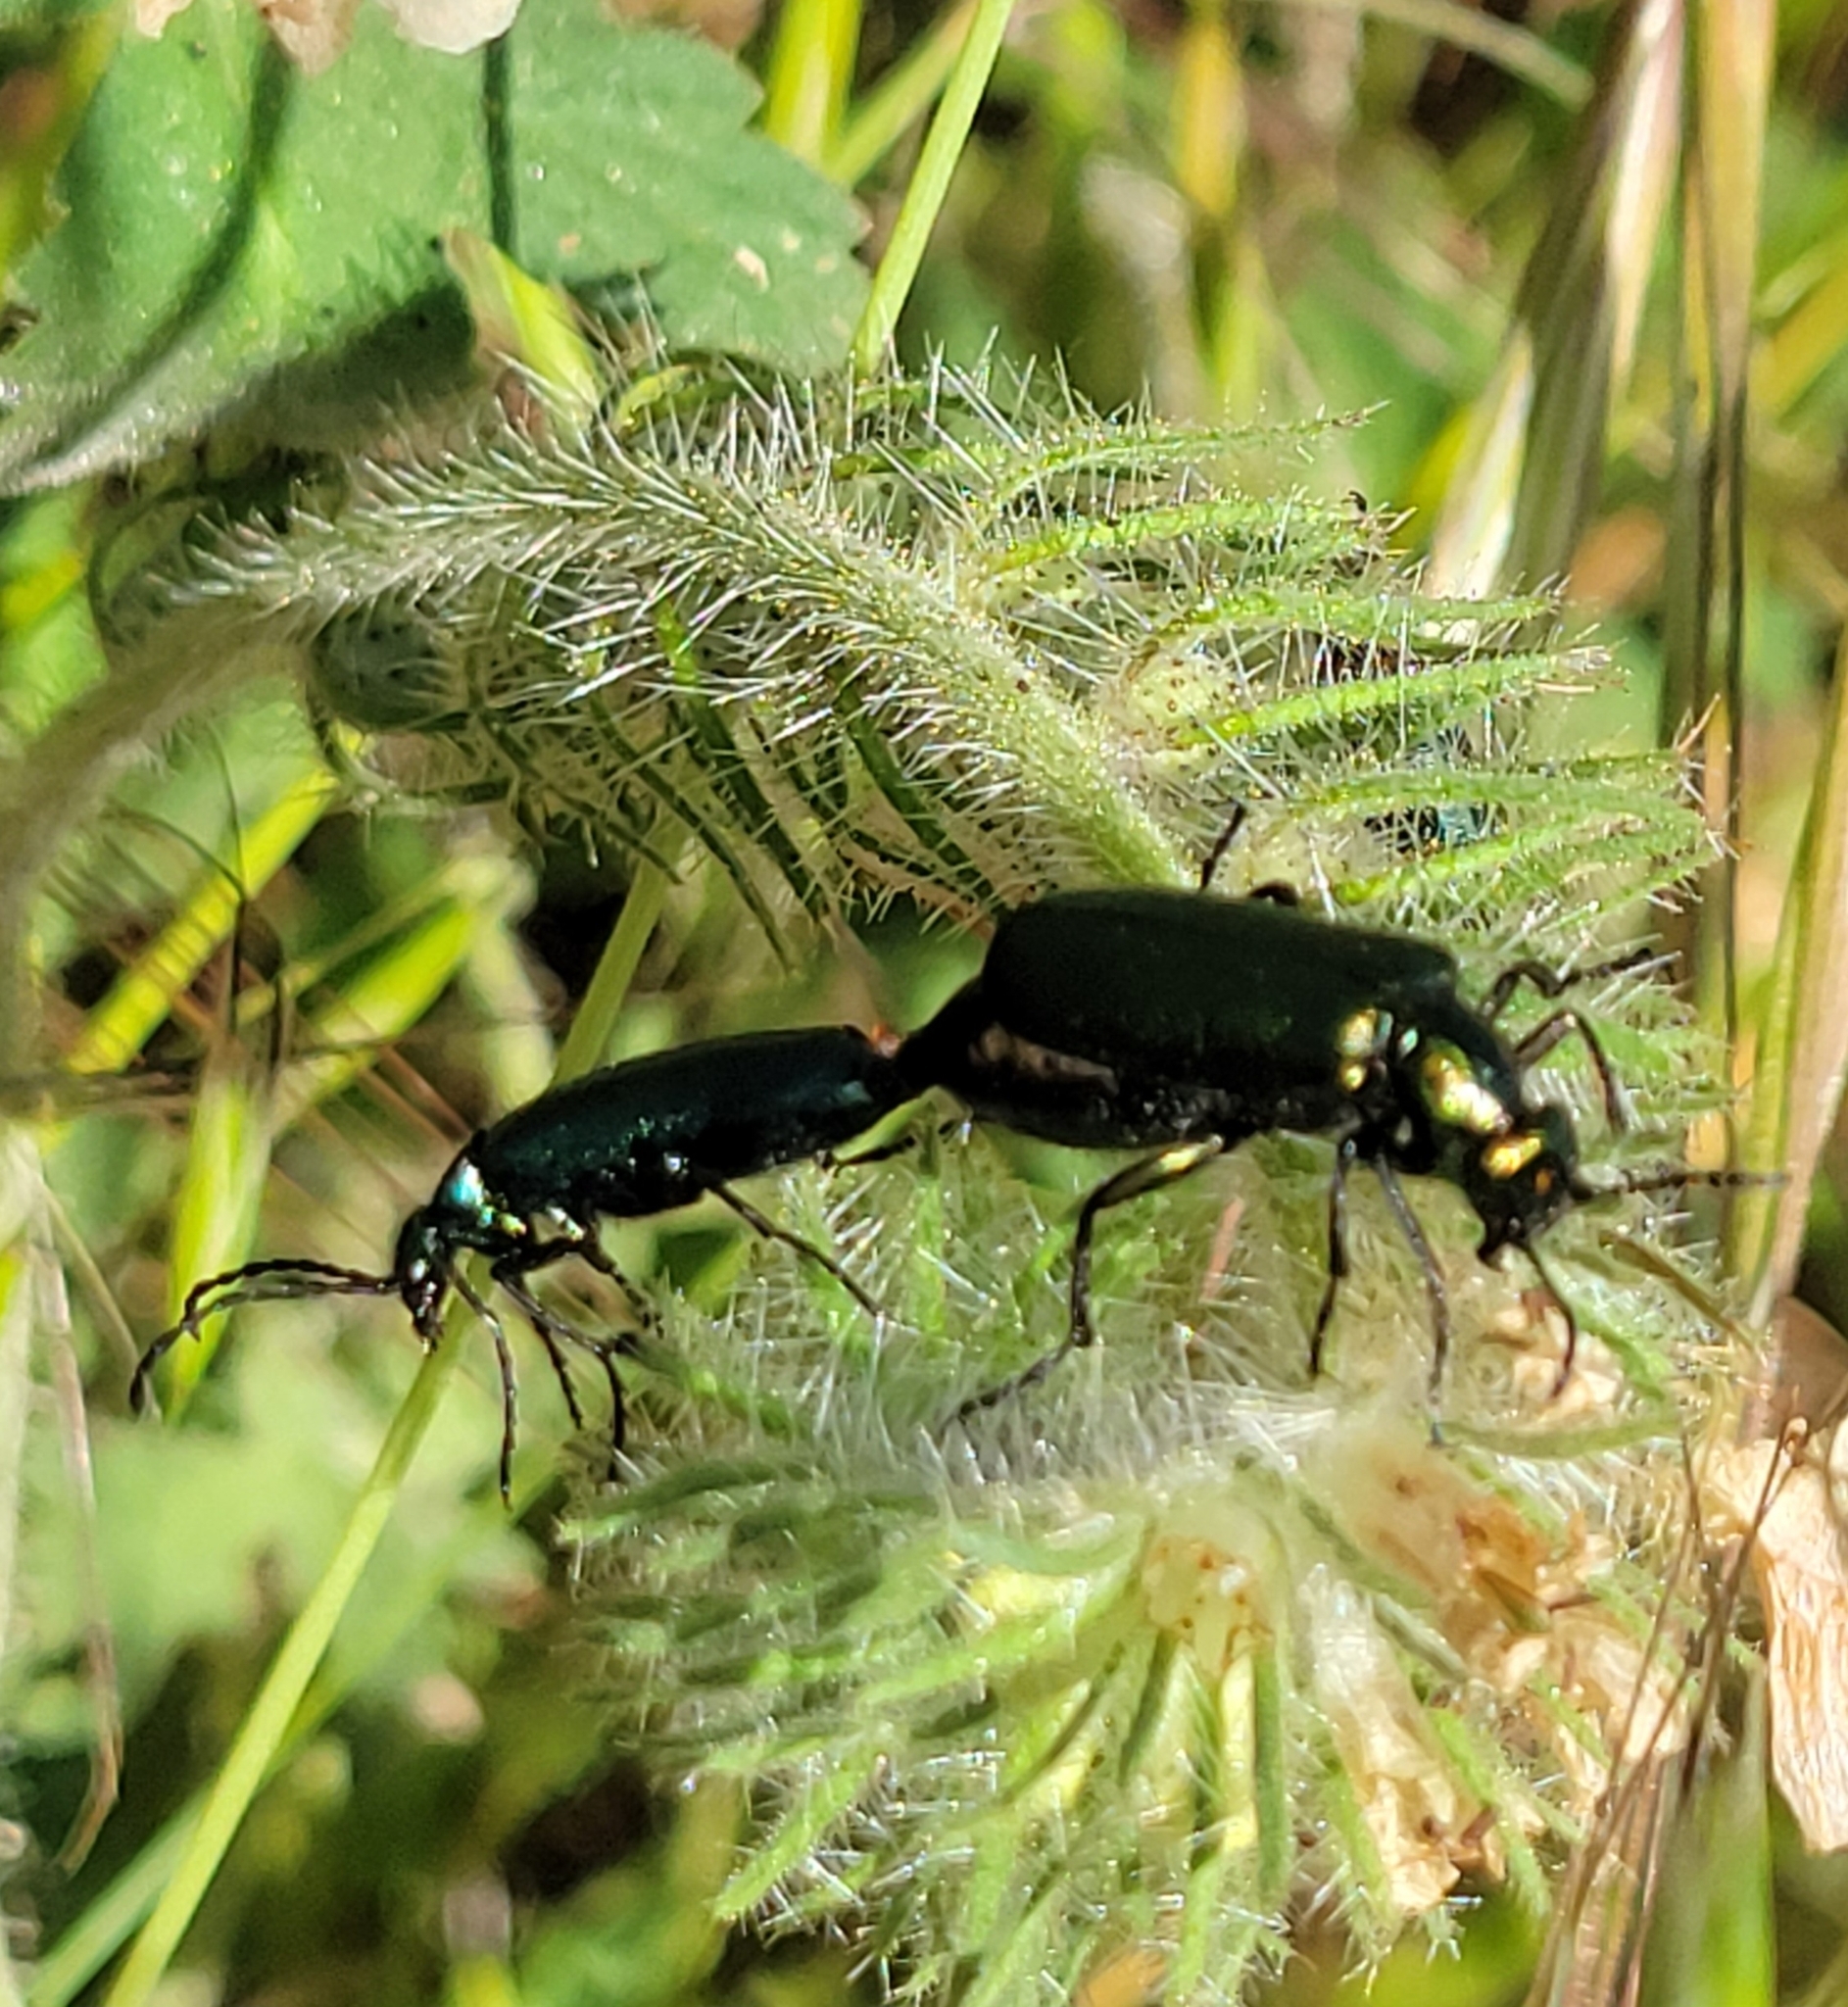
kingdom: Animalia
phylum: Arthropoda
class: Insecta
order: Coleoptera
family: Meloidae
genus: Lytta
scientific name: Lytta stygica
